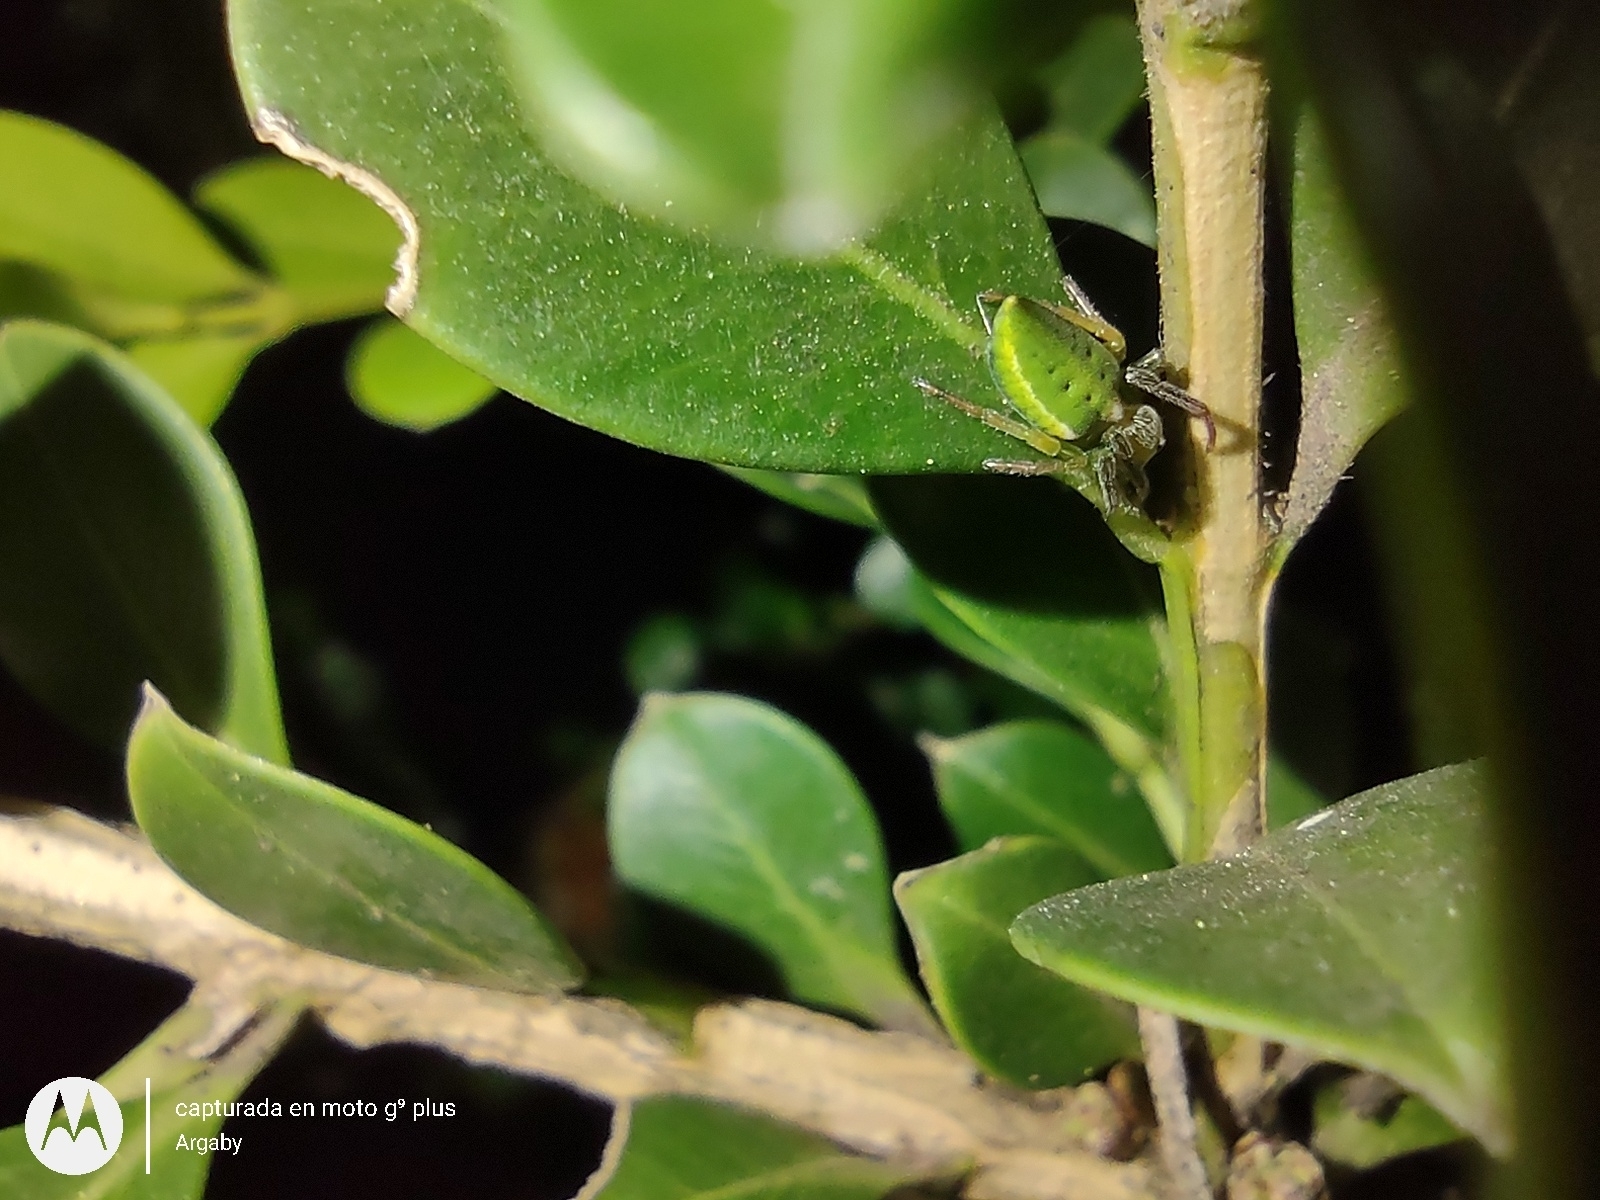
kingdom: Animalia
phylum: Arthropoda
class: Arachnida
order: Araneae
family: Araneidae
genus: Alpaida
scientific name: Alpaida costai
